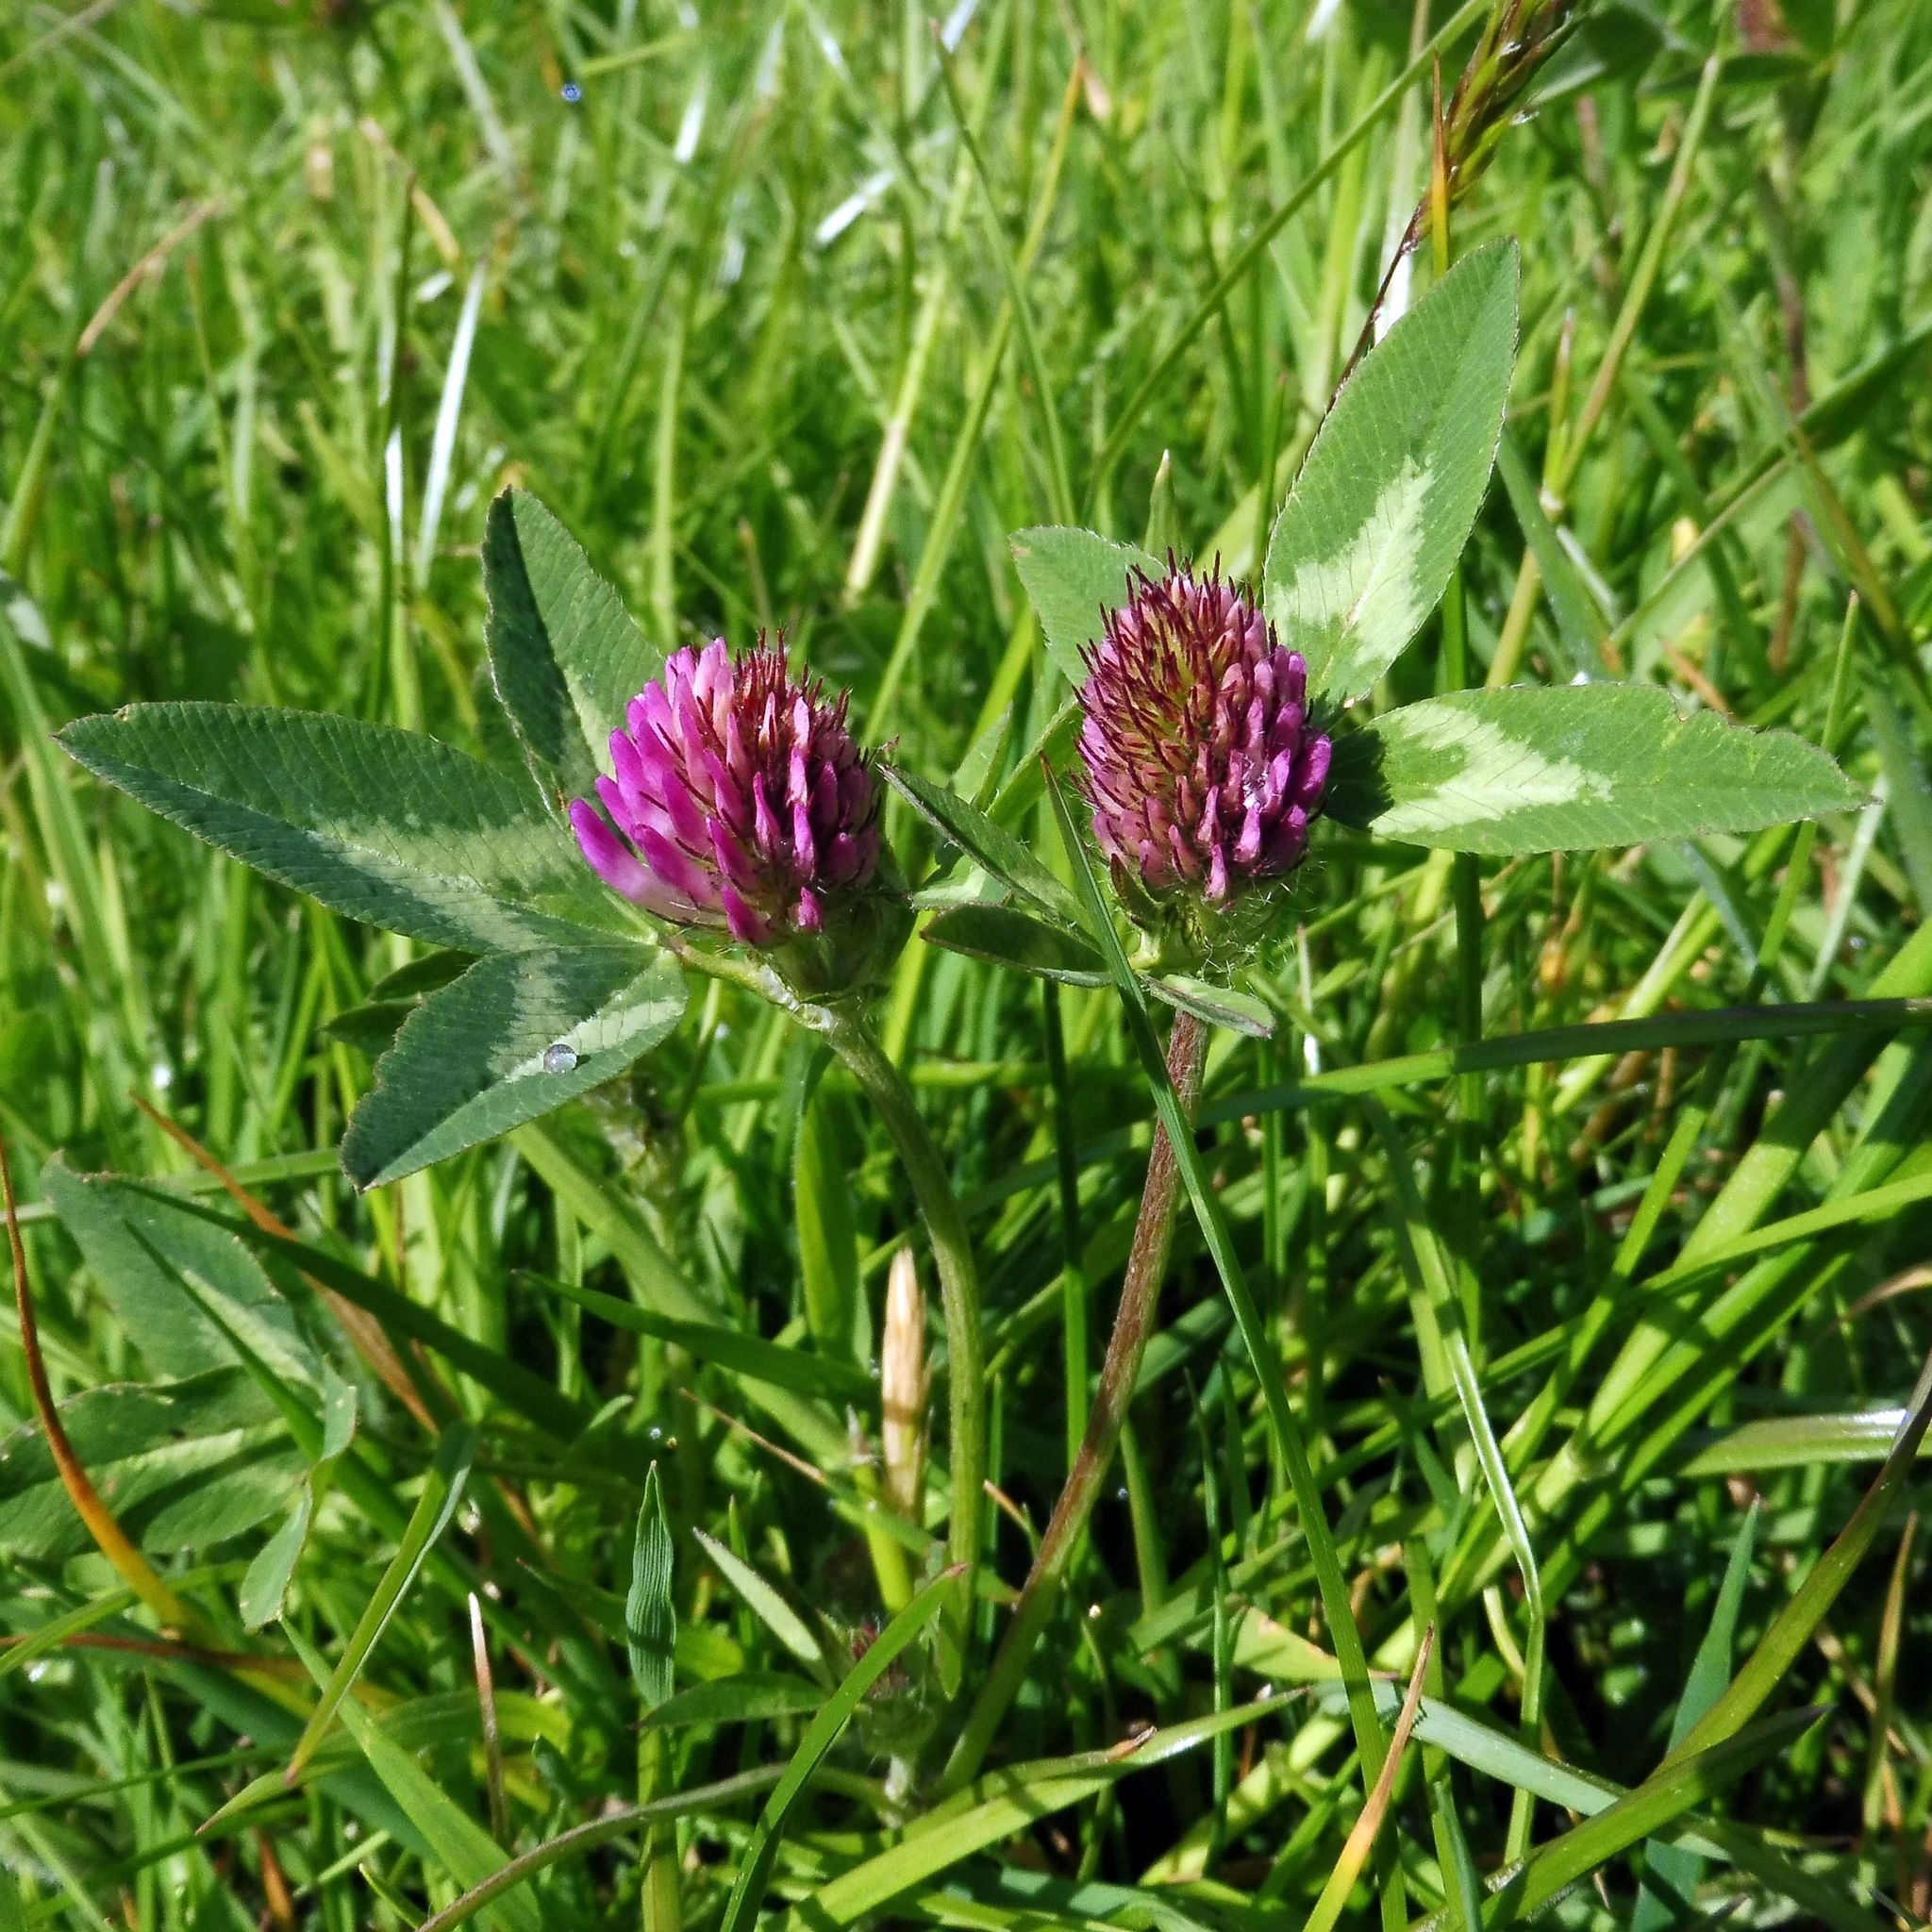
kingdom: Plantae
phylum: Tracheophyta
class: Magnoliopsida
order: Fabales
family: Fabaceae
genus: Trifolium
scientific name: Trifolium pratense
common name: Red clover
